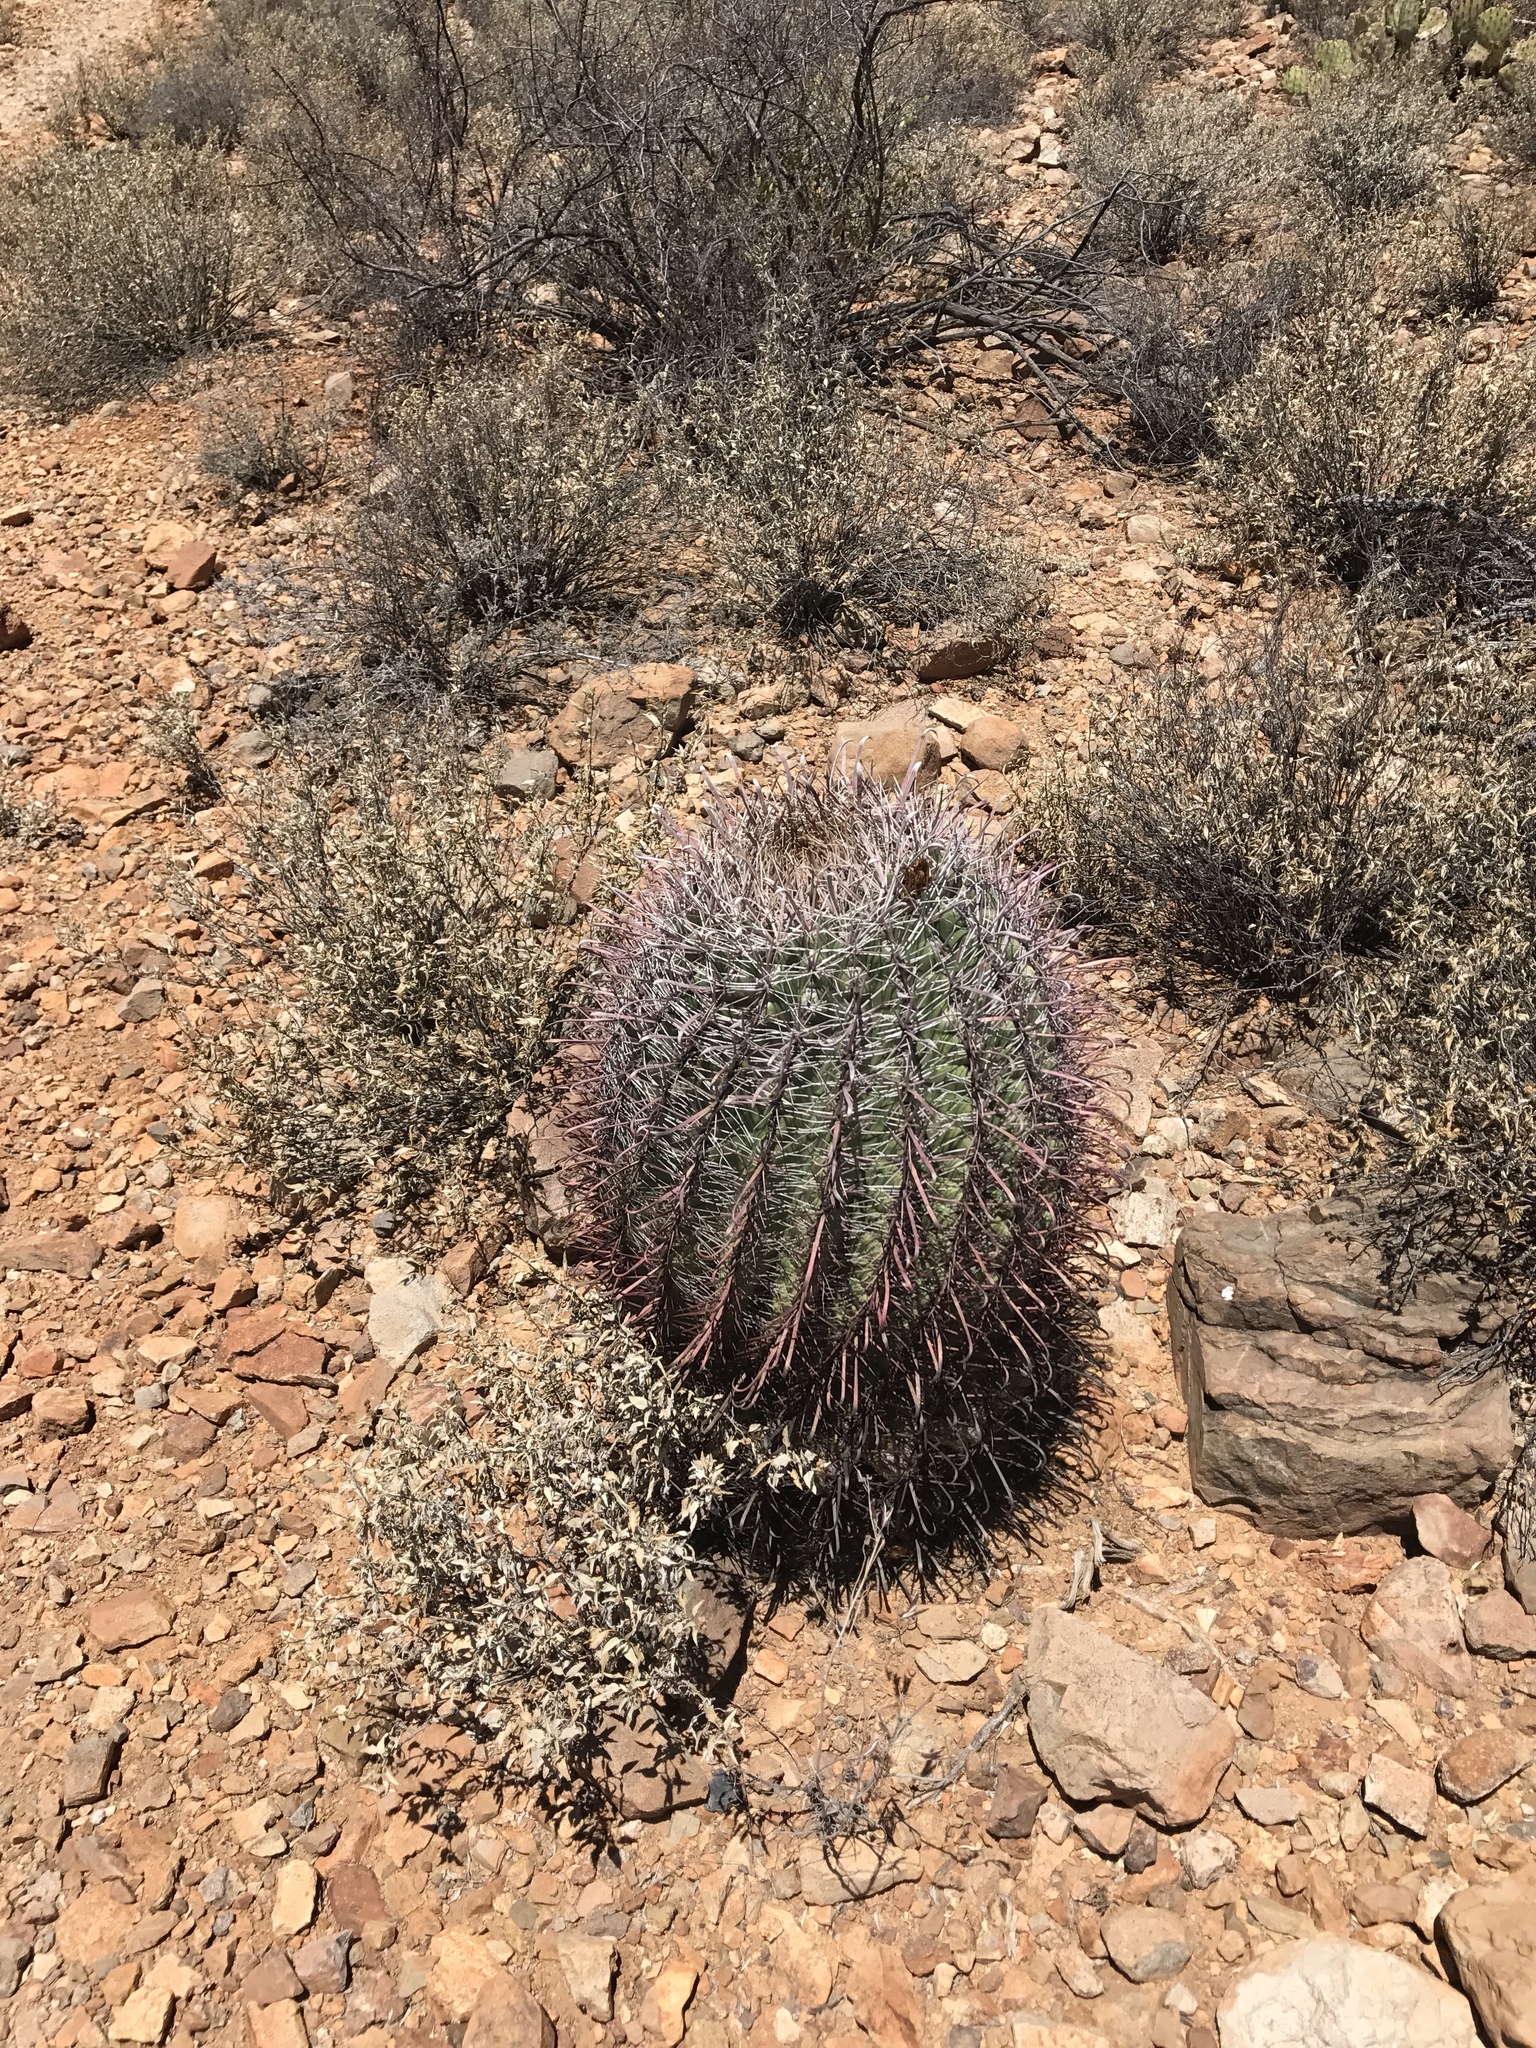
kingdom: Plantae
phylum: Tracheophyta
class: Magnoliopsida
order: Caryophyllales
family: Cactaceae
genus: Ferocactus
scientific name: Ferocactus wislizeni
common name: Candy barrel cactus
